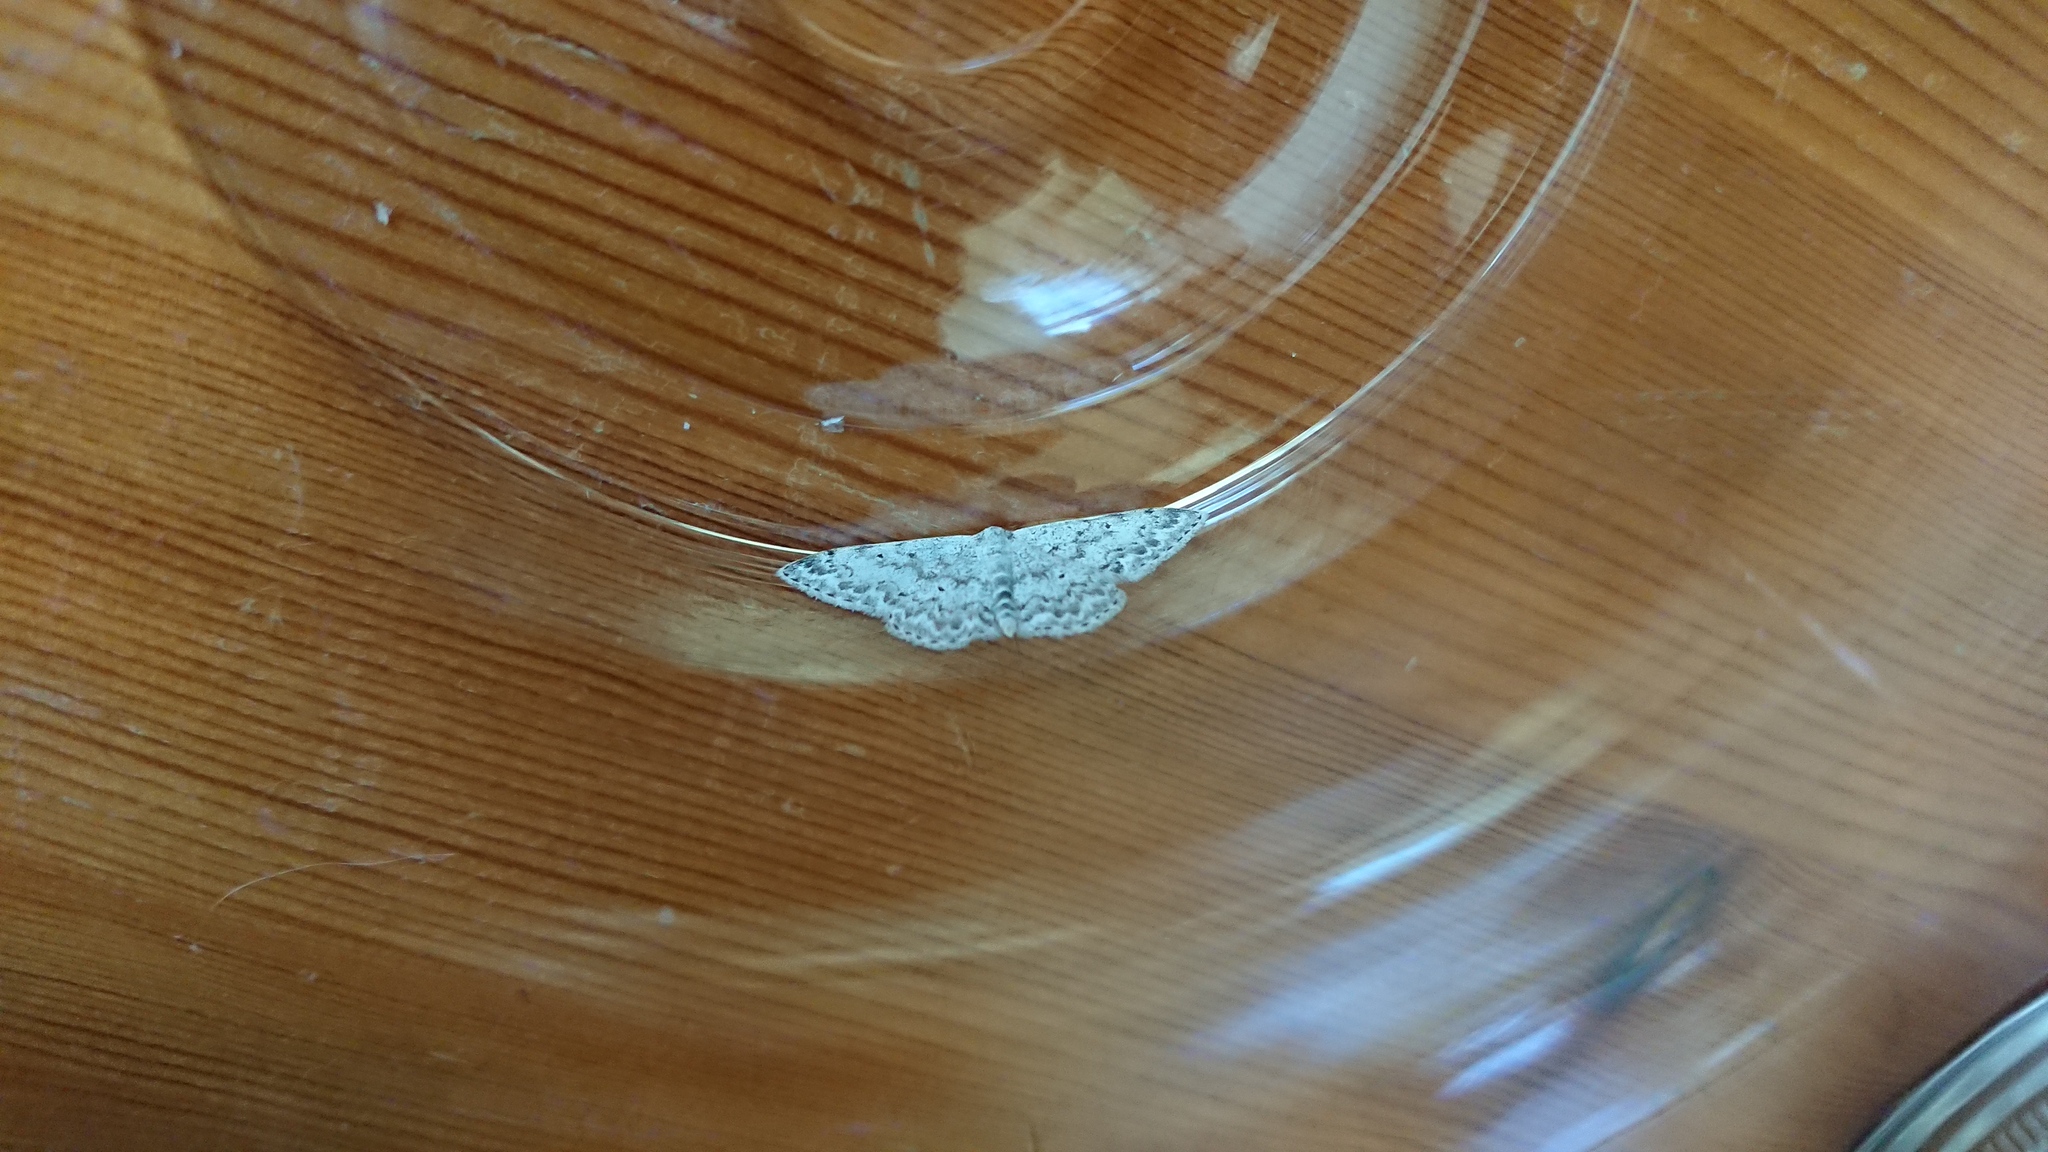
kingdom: Animalia
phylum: Arthropoda
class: Insecta
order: Lepidoptera
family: Geometridae
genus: Scopula
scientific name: Scopula marginepunctata
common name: Mullein wave
